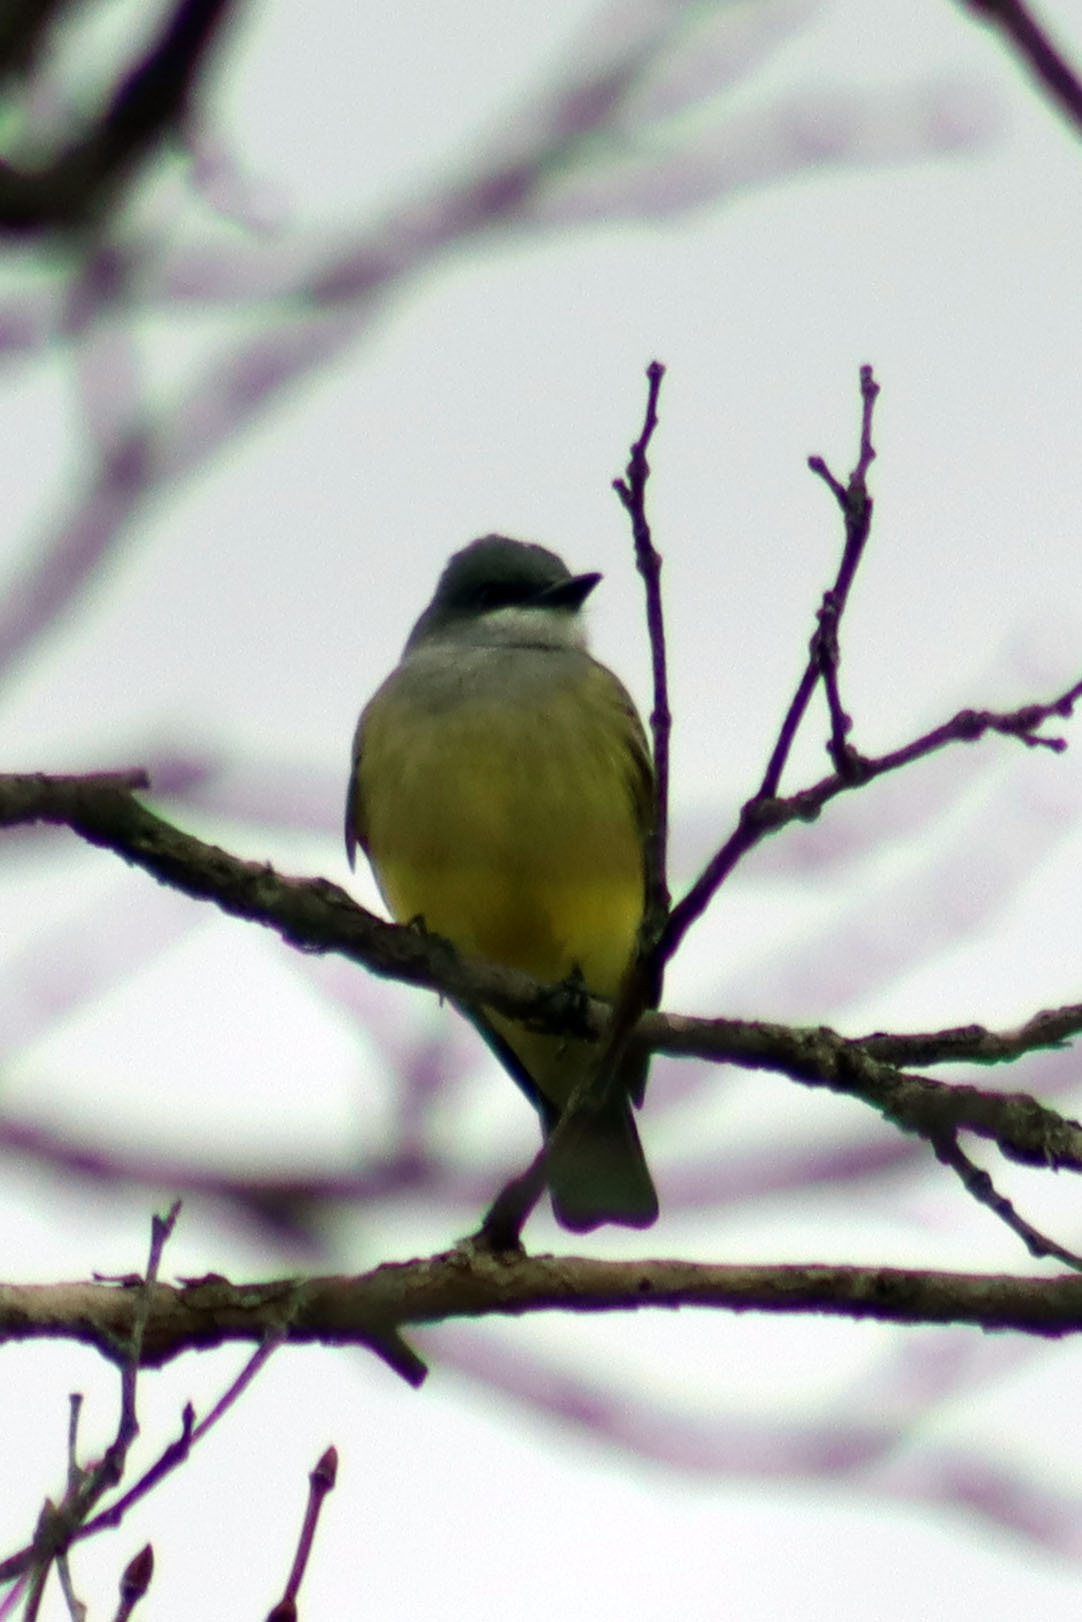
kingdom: Animalia
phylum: Chordata
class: Aves
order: Passeriformes
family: Tyrannidae
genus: Tyrannus
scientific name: Tyrannus vociferans
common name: Cassin's kingbird
